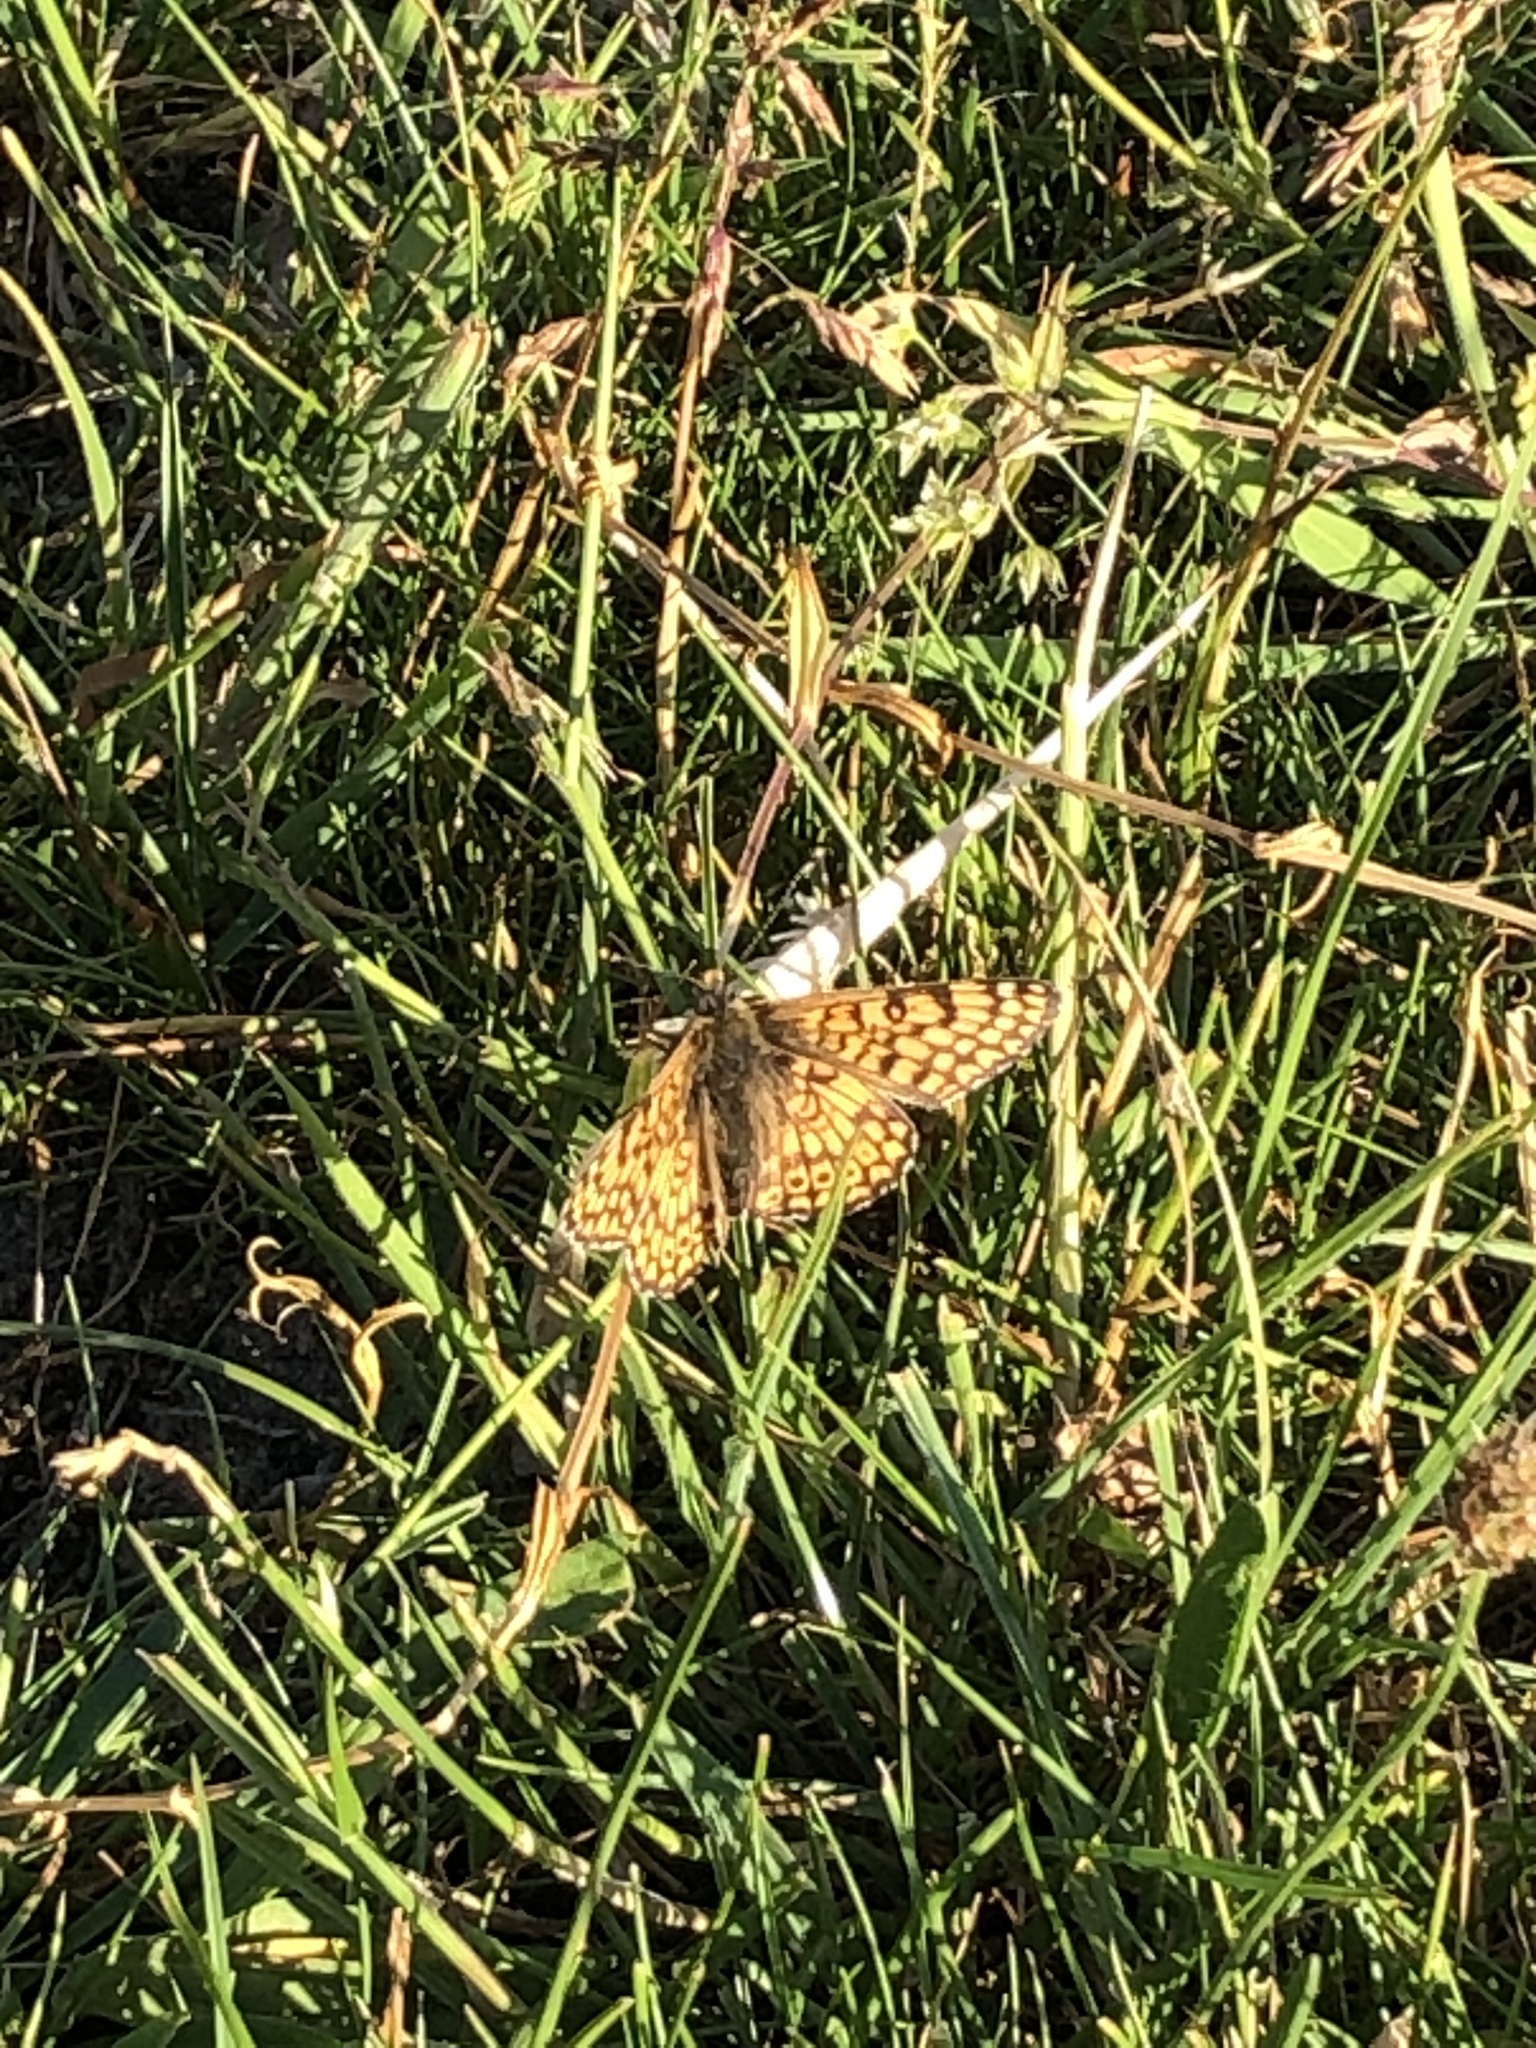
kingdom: Animalia
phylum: Arthropoda
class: Insecta
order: Lepidoptera
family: Nymphalidae
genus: Melitaea
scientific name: Melitaea cinxia
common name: Glanville fritillary
